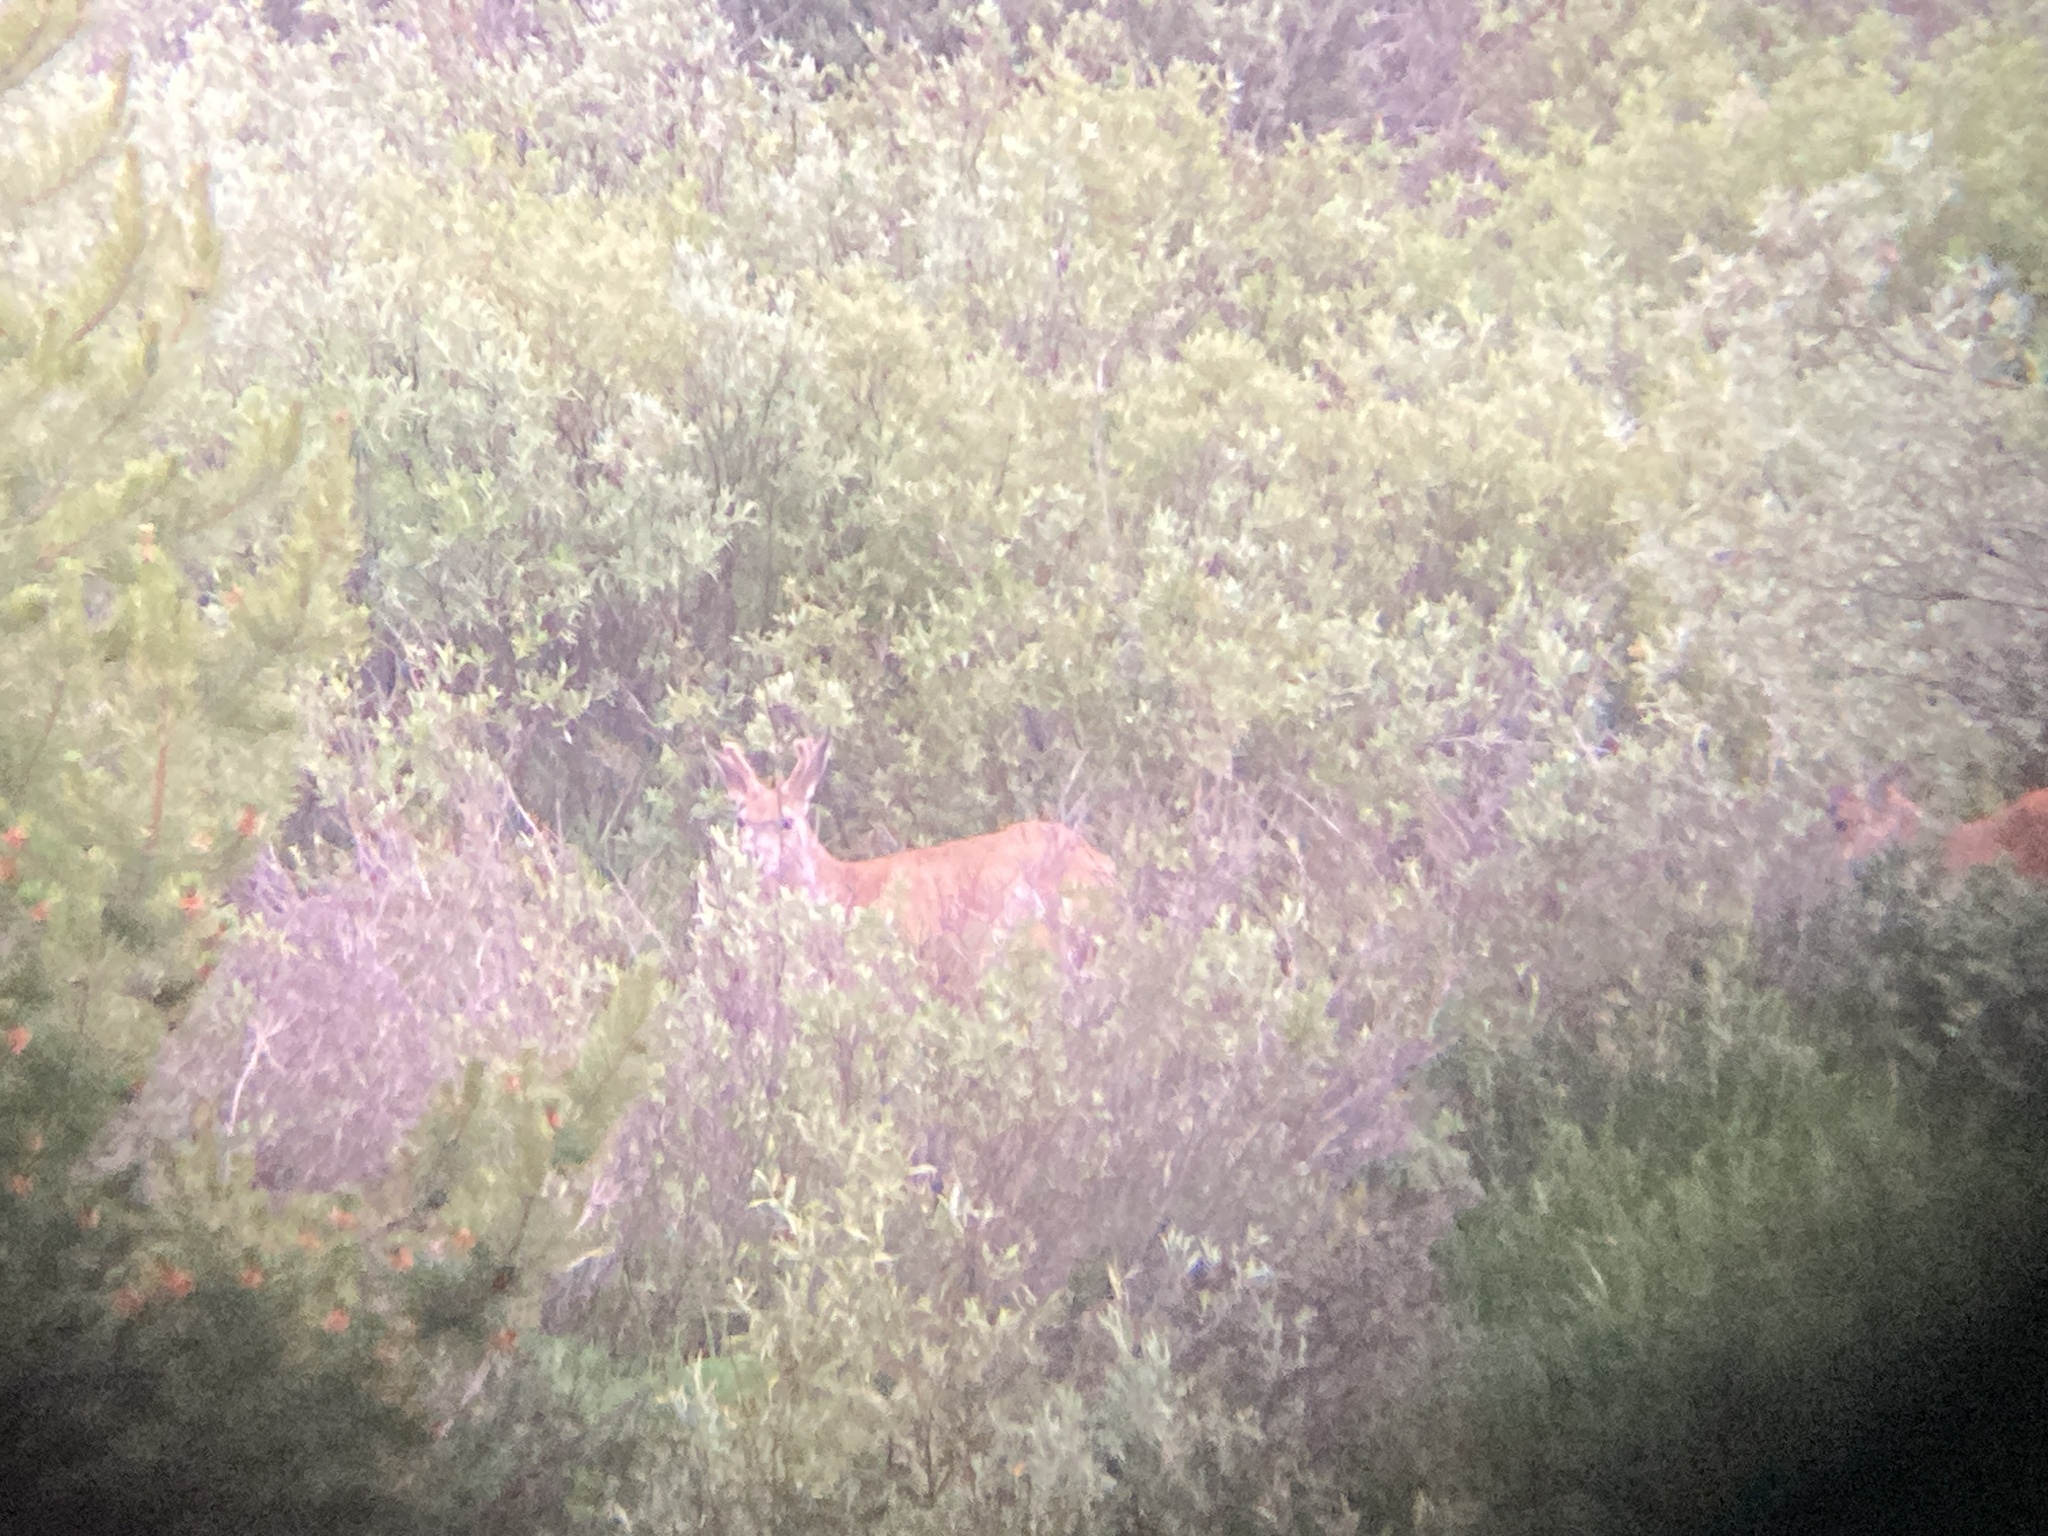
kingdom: Animalia
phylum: Chordata
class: Mammalia
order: Artiodactyla
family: Cervidae
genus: Odocoileus
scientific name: Odocoileus hemionus
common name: Mule deer
